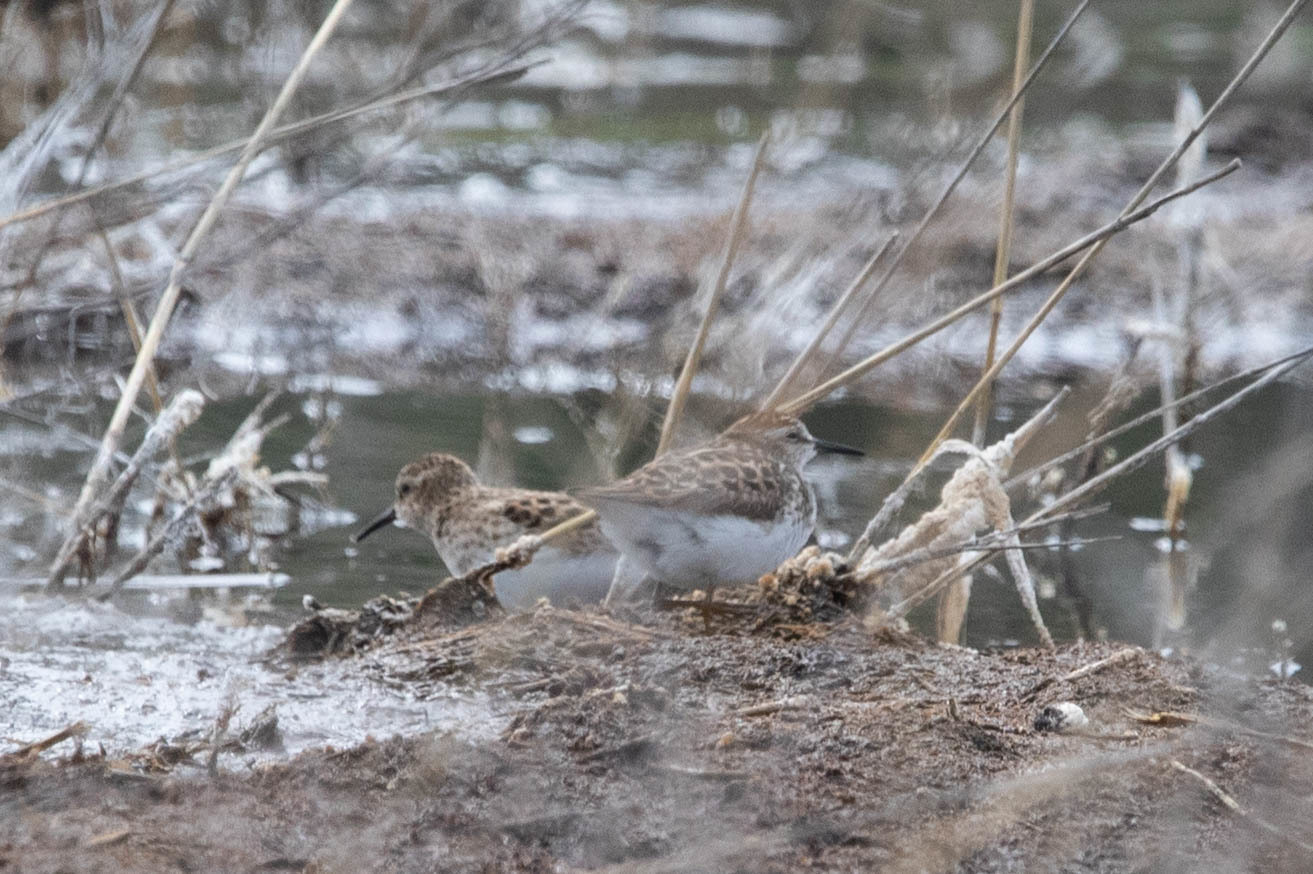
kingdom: Animalia
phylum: Chordata
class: Aves
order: Charadriiformes
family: Scolopacidae
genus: Calidris
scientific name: Calidris minutilla
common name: Least sandpiper
